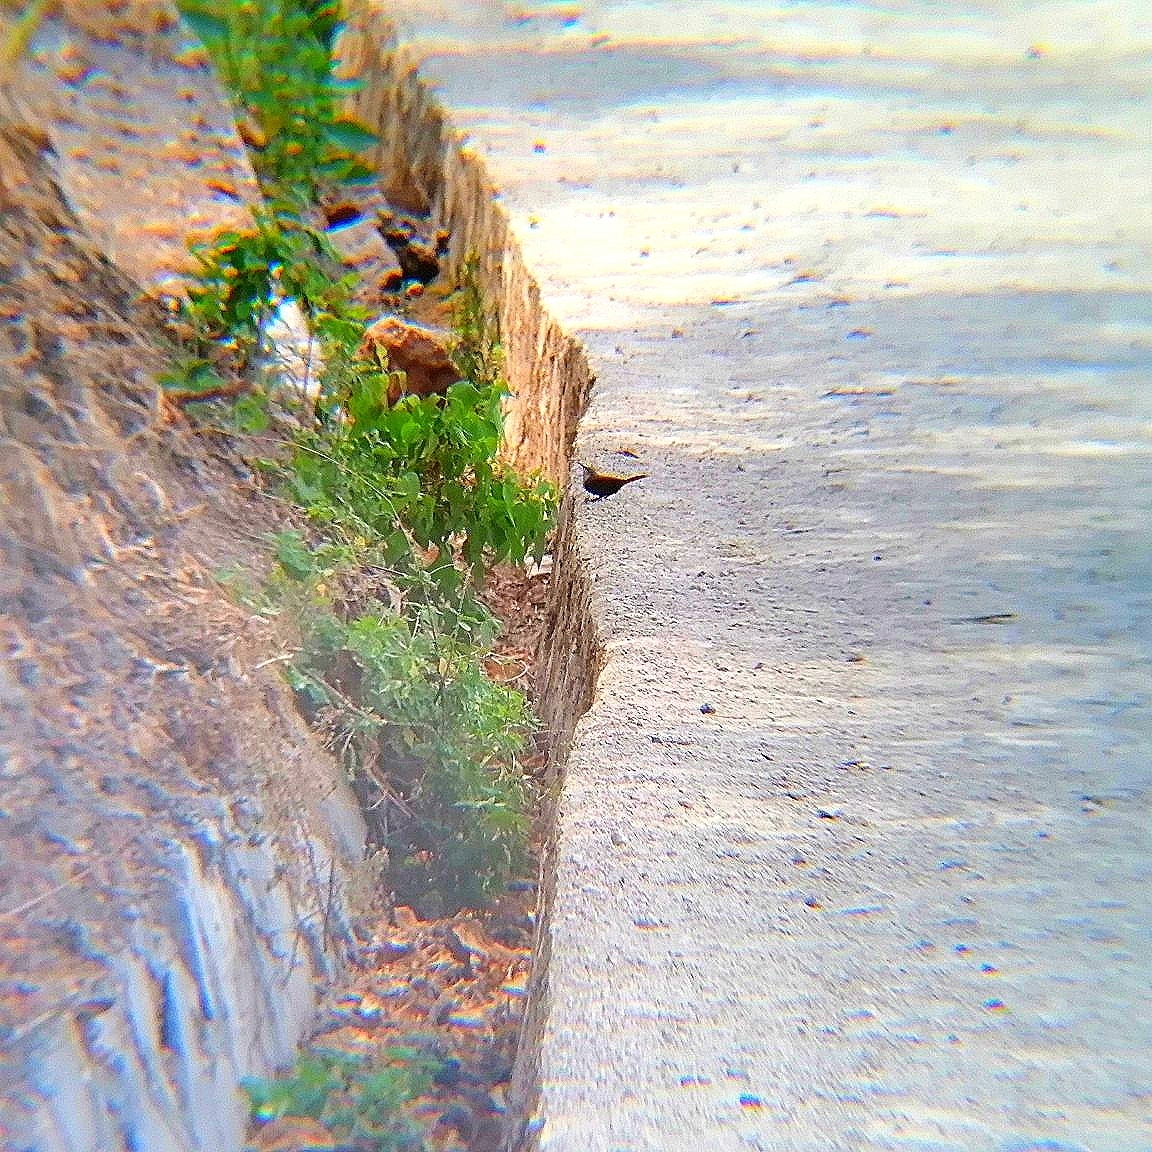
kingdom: Animalia
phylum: Chordata
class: Aves
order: Passeriformes
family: Troglodytidae
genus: Catherpes
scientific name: Catherpes mexicanus
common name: Canyon wren
